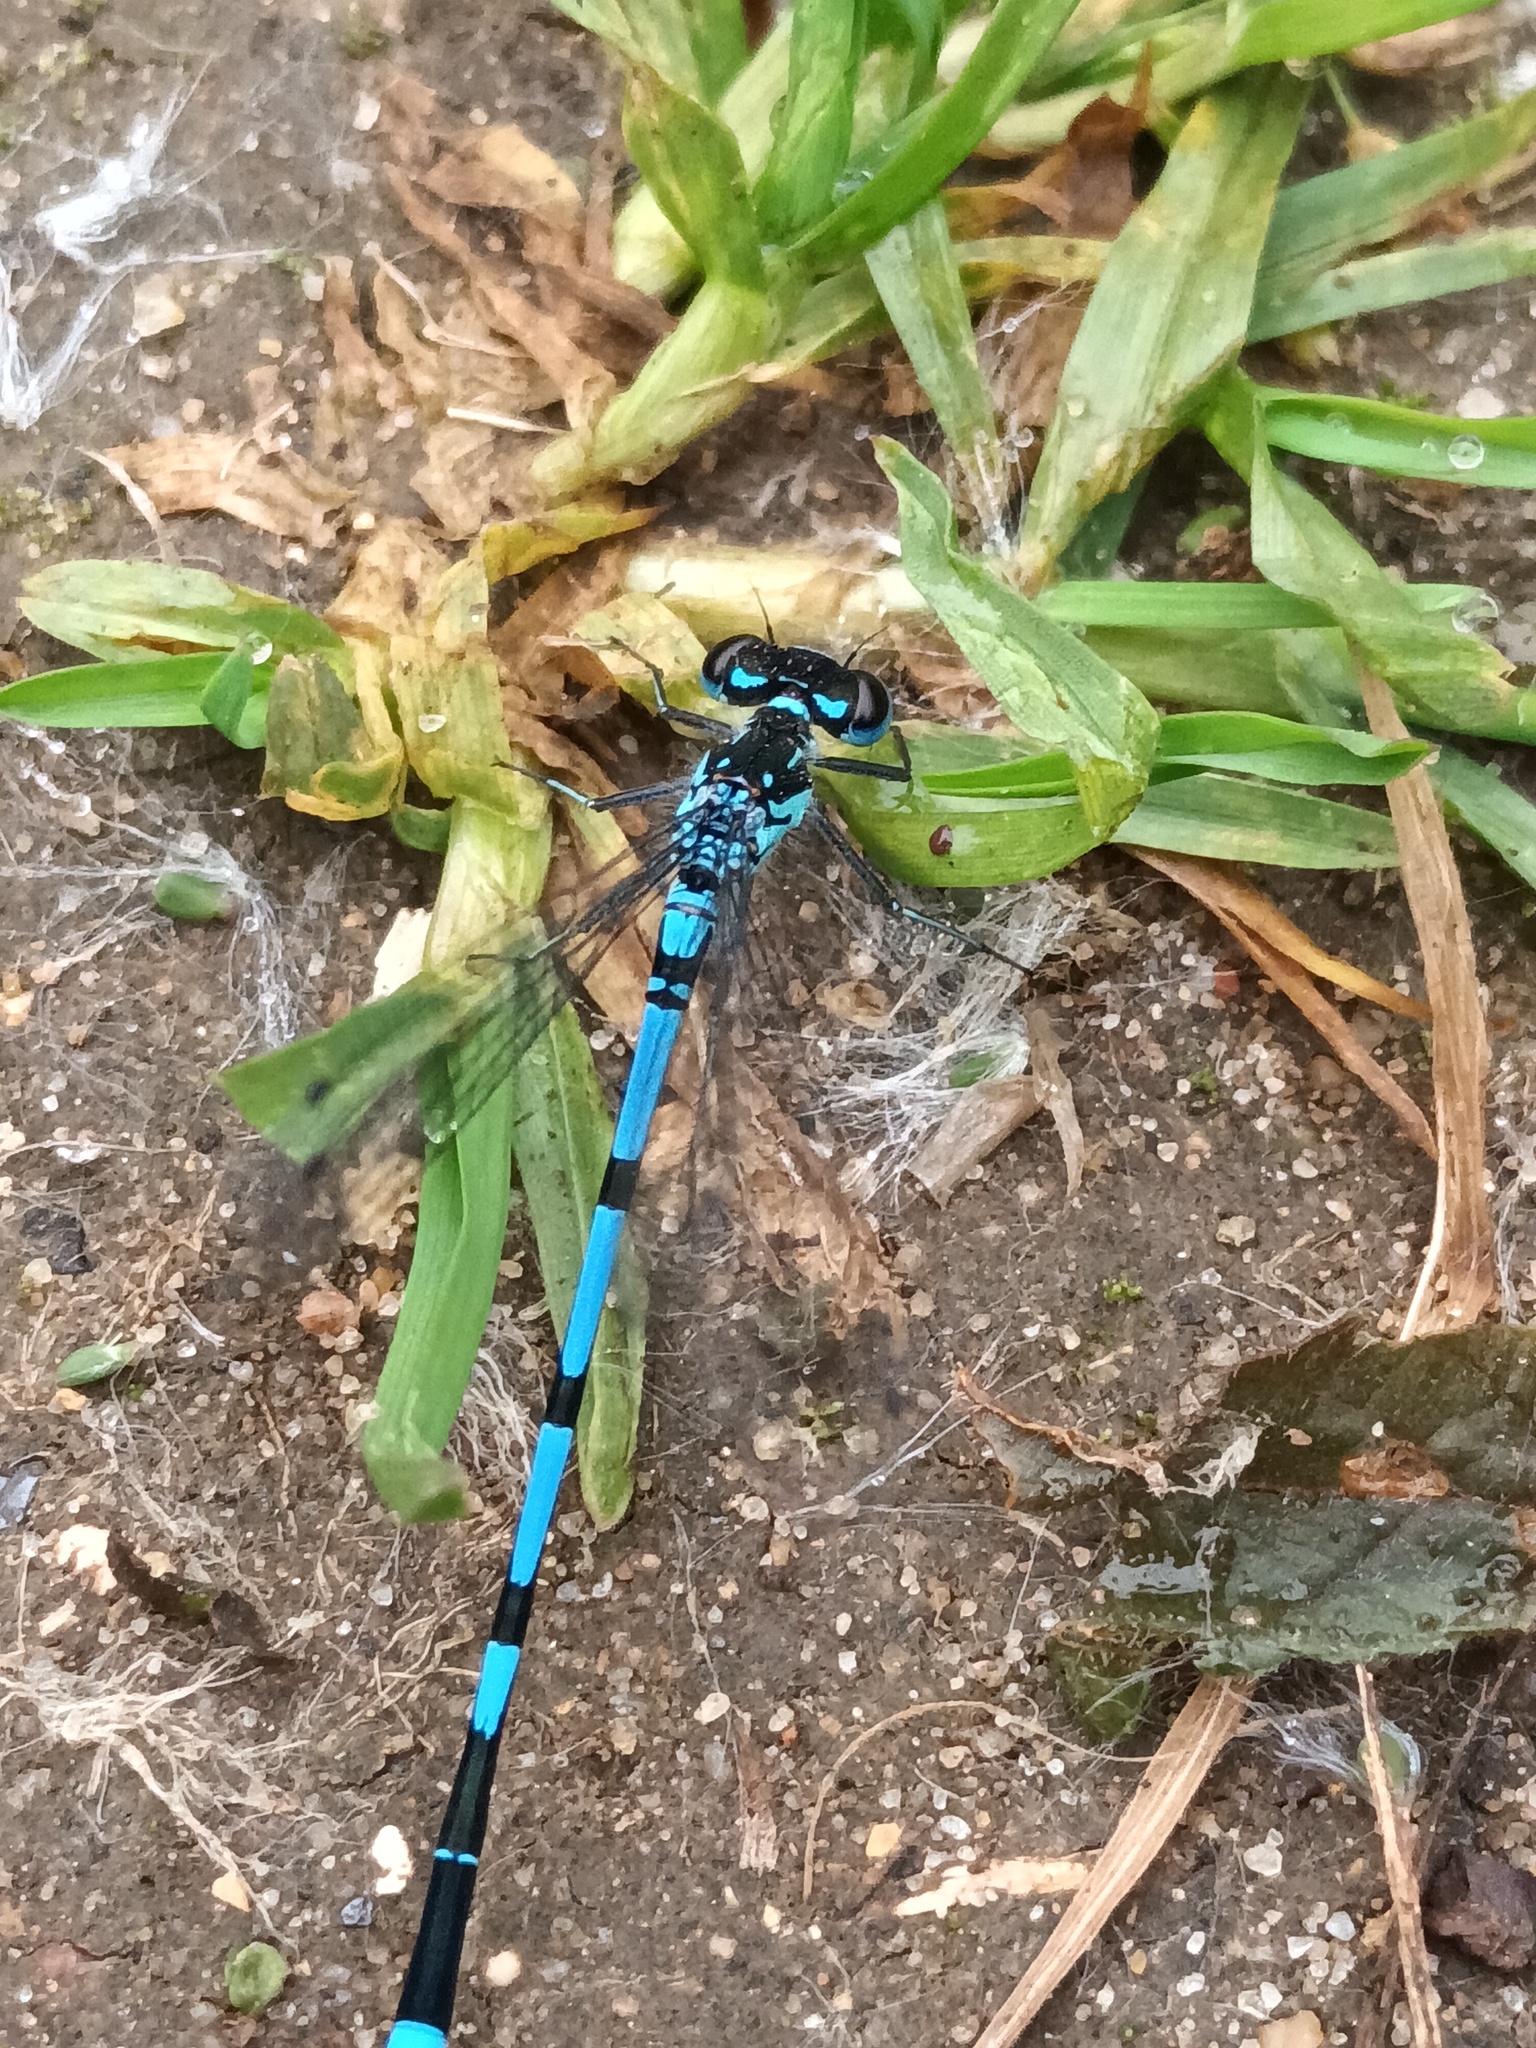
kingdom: Animalia
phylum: Arthropoda
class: Insecta
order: Odonata
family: Coenagrionidae
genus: Coenagrion
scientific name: Coenagrion pulchellum
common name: Variable bluet
